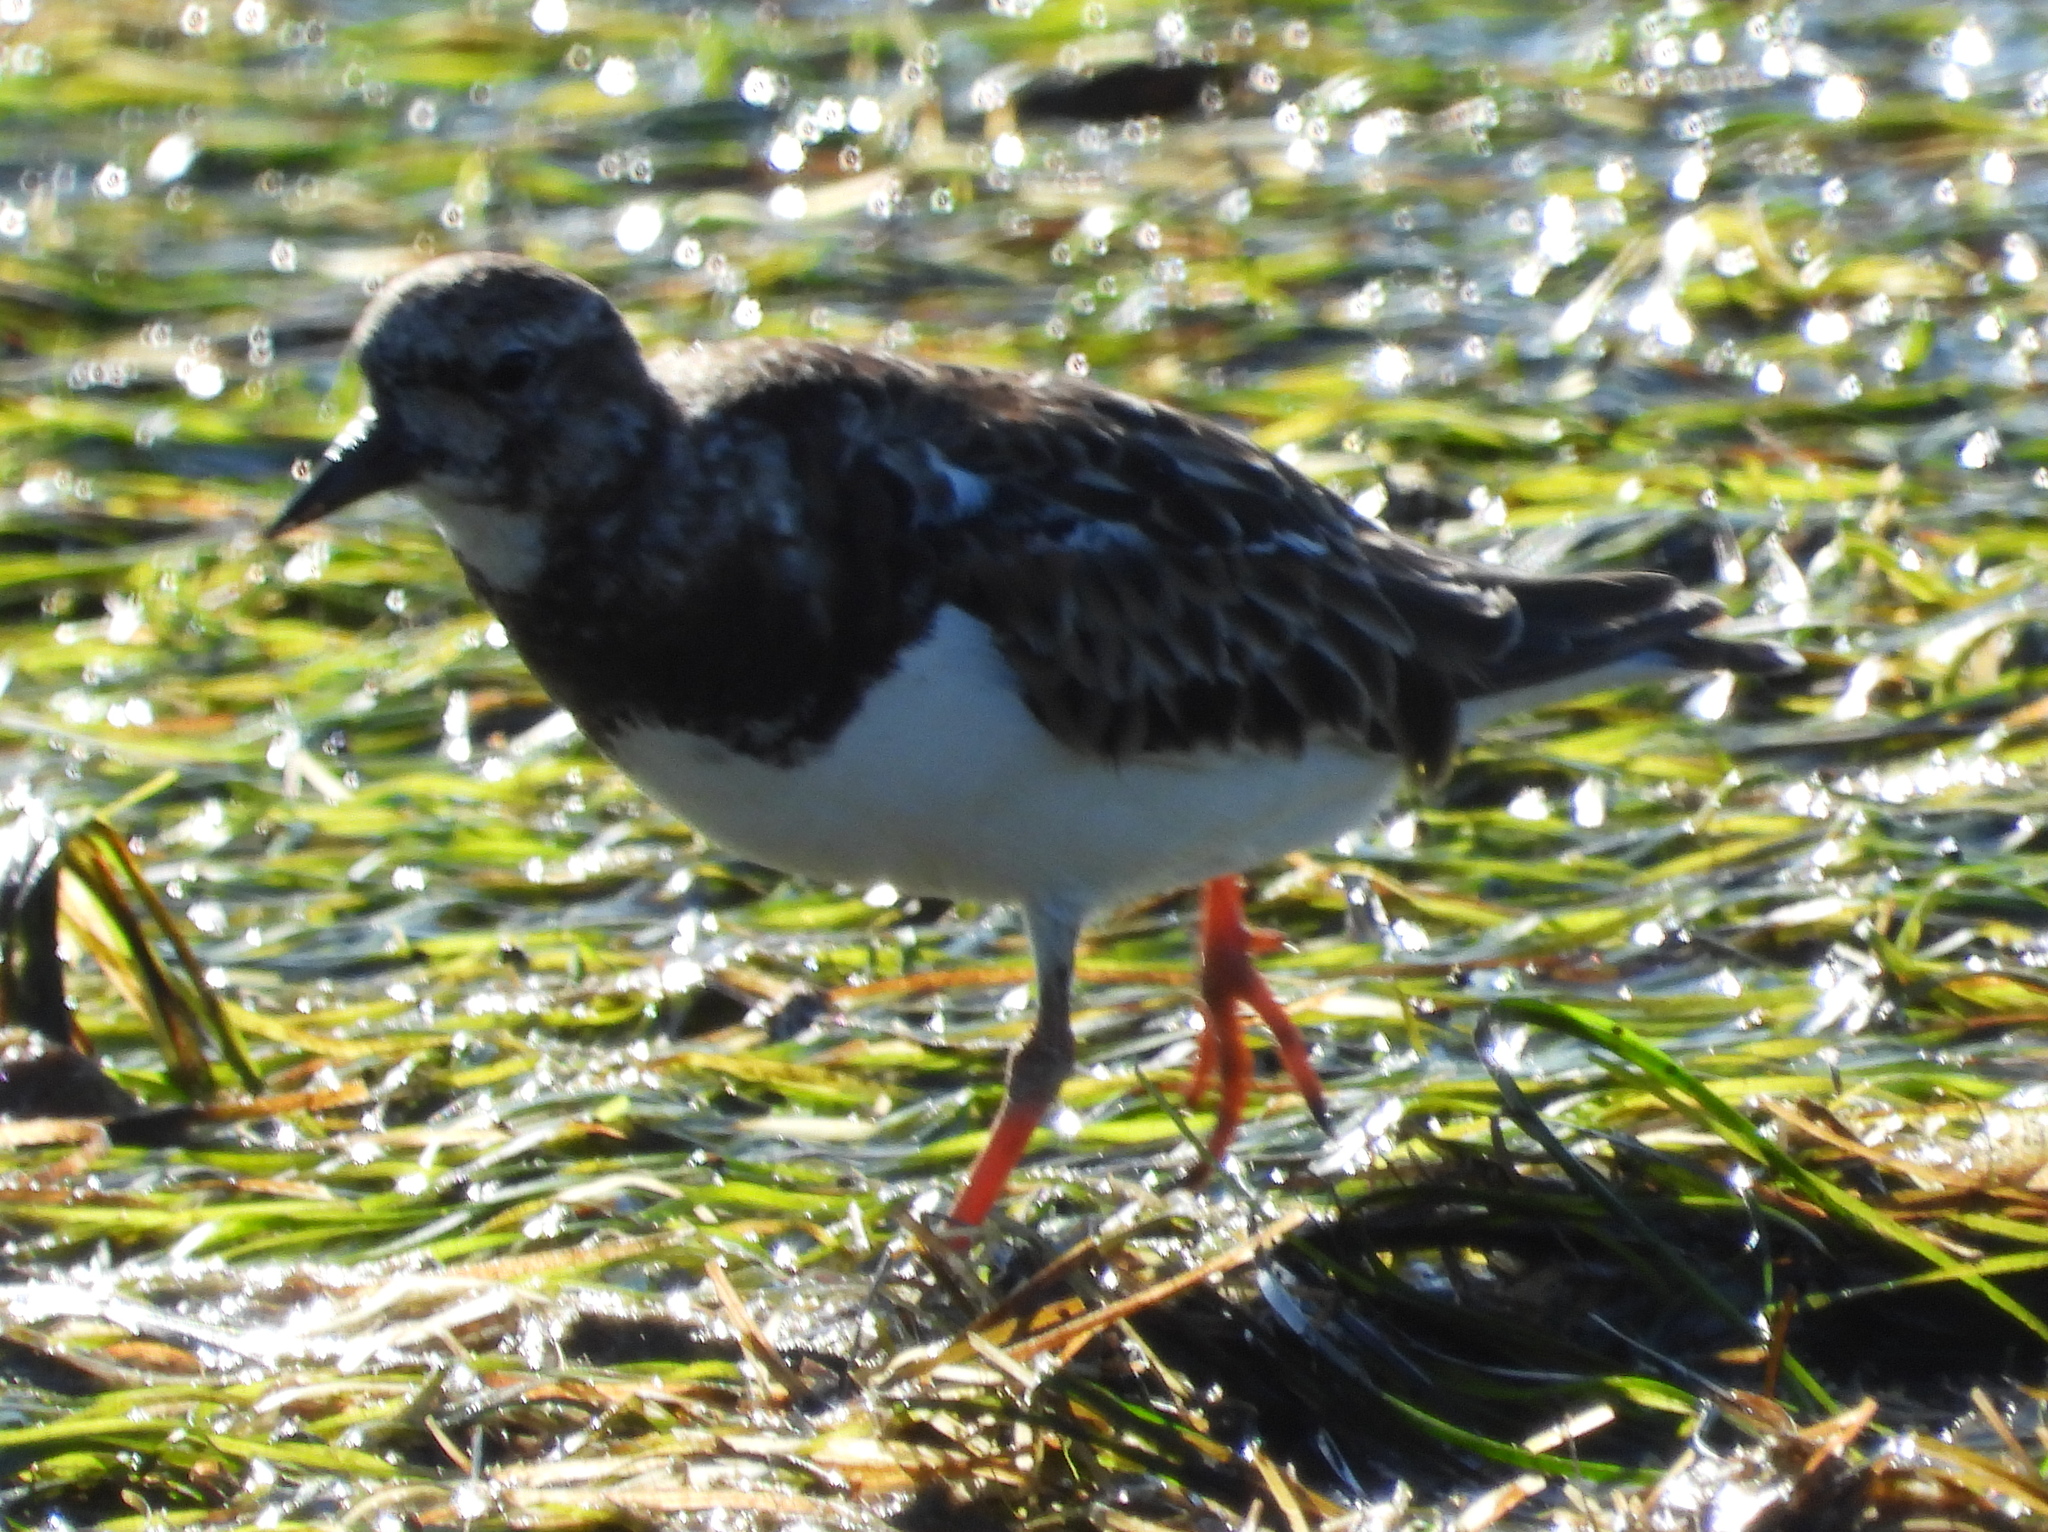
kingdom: Animalia
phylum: Chordata
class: Aves
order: Charadriiformes
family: Scolopacidae
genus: Arenaria
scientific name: Arenaria interpres
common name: Ruddy turnstone
